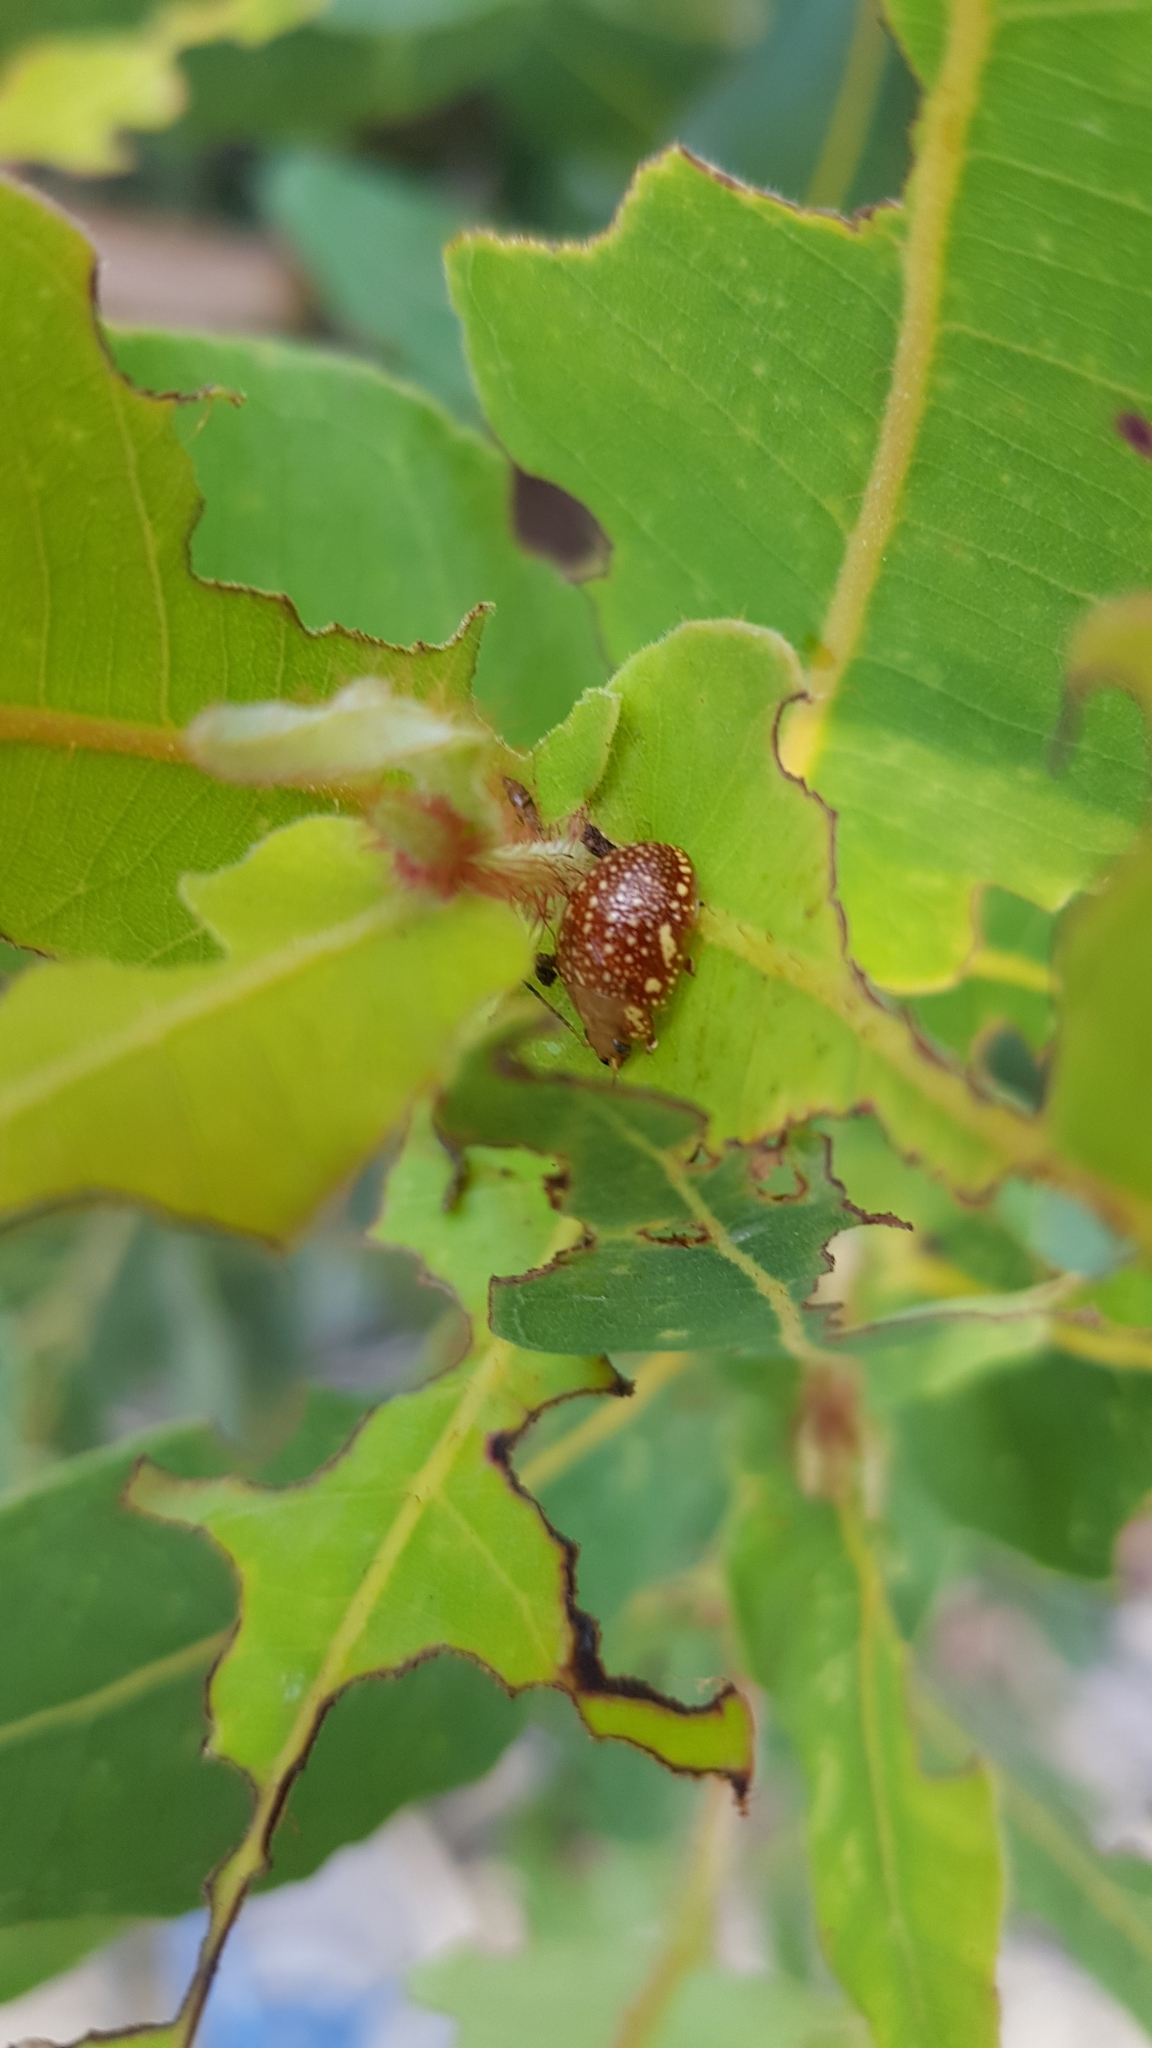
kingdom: Animalia
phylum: Arthropoda
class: Insecta
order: Coleoptera
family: Chrysomelidae
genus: Paropsis
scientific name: Paropsis
